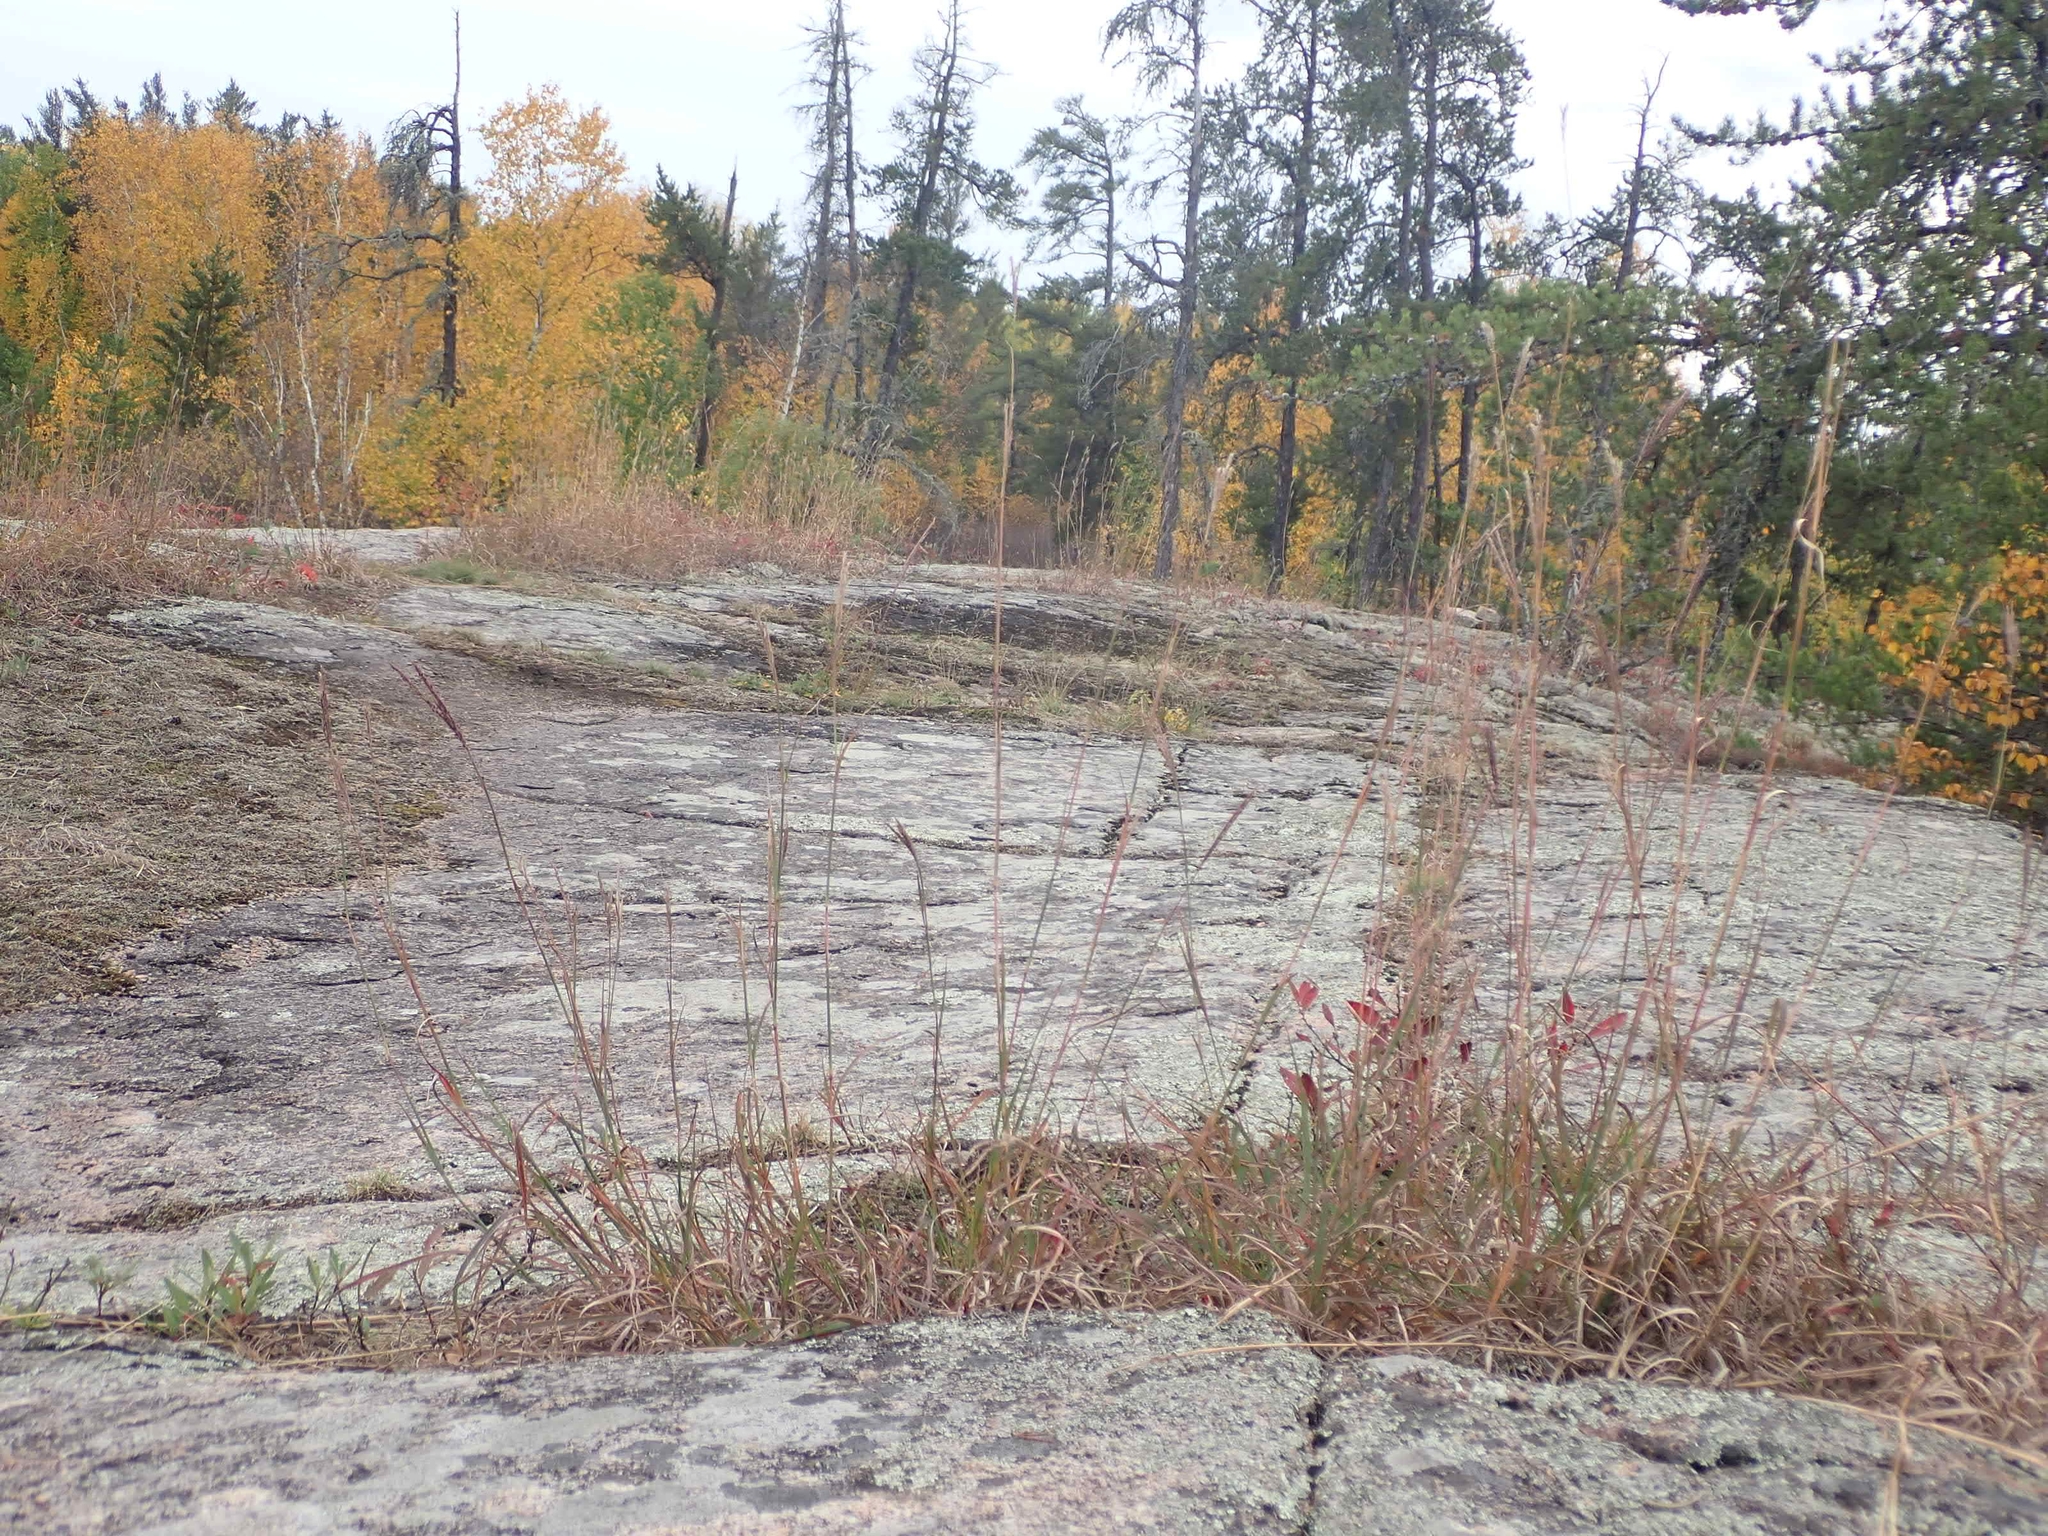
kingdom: Plantae
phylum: Tracheophyta
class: Liliopsida
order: Poales
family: Poaceae
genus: Andropogon
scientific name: Andropogon gerardi
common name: Big bluestem
